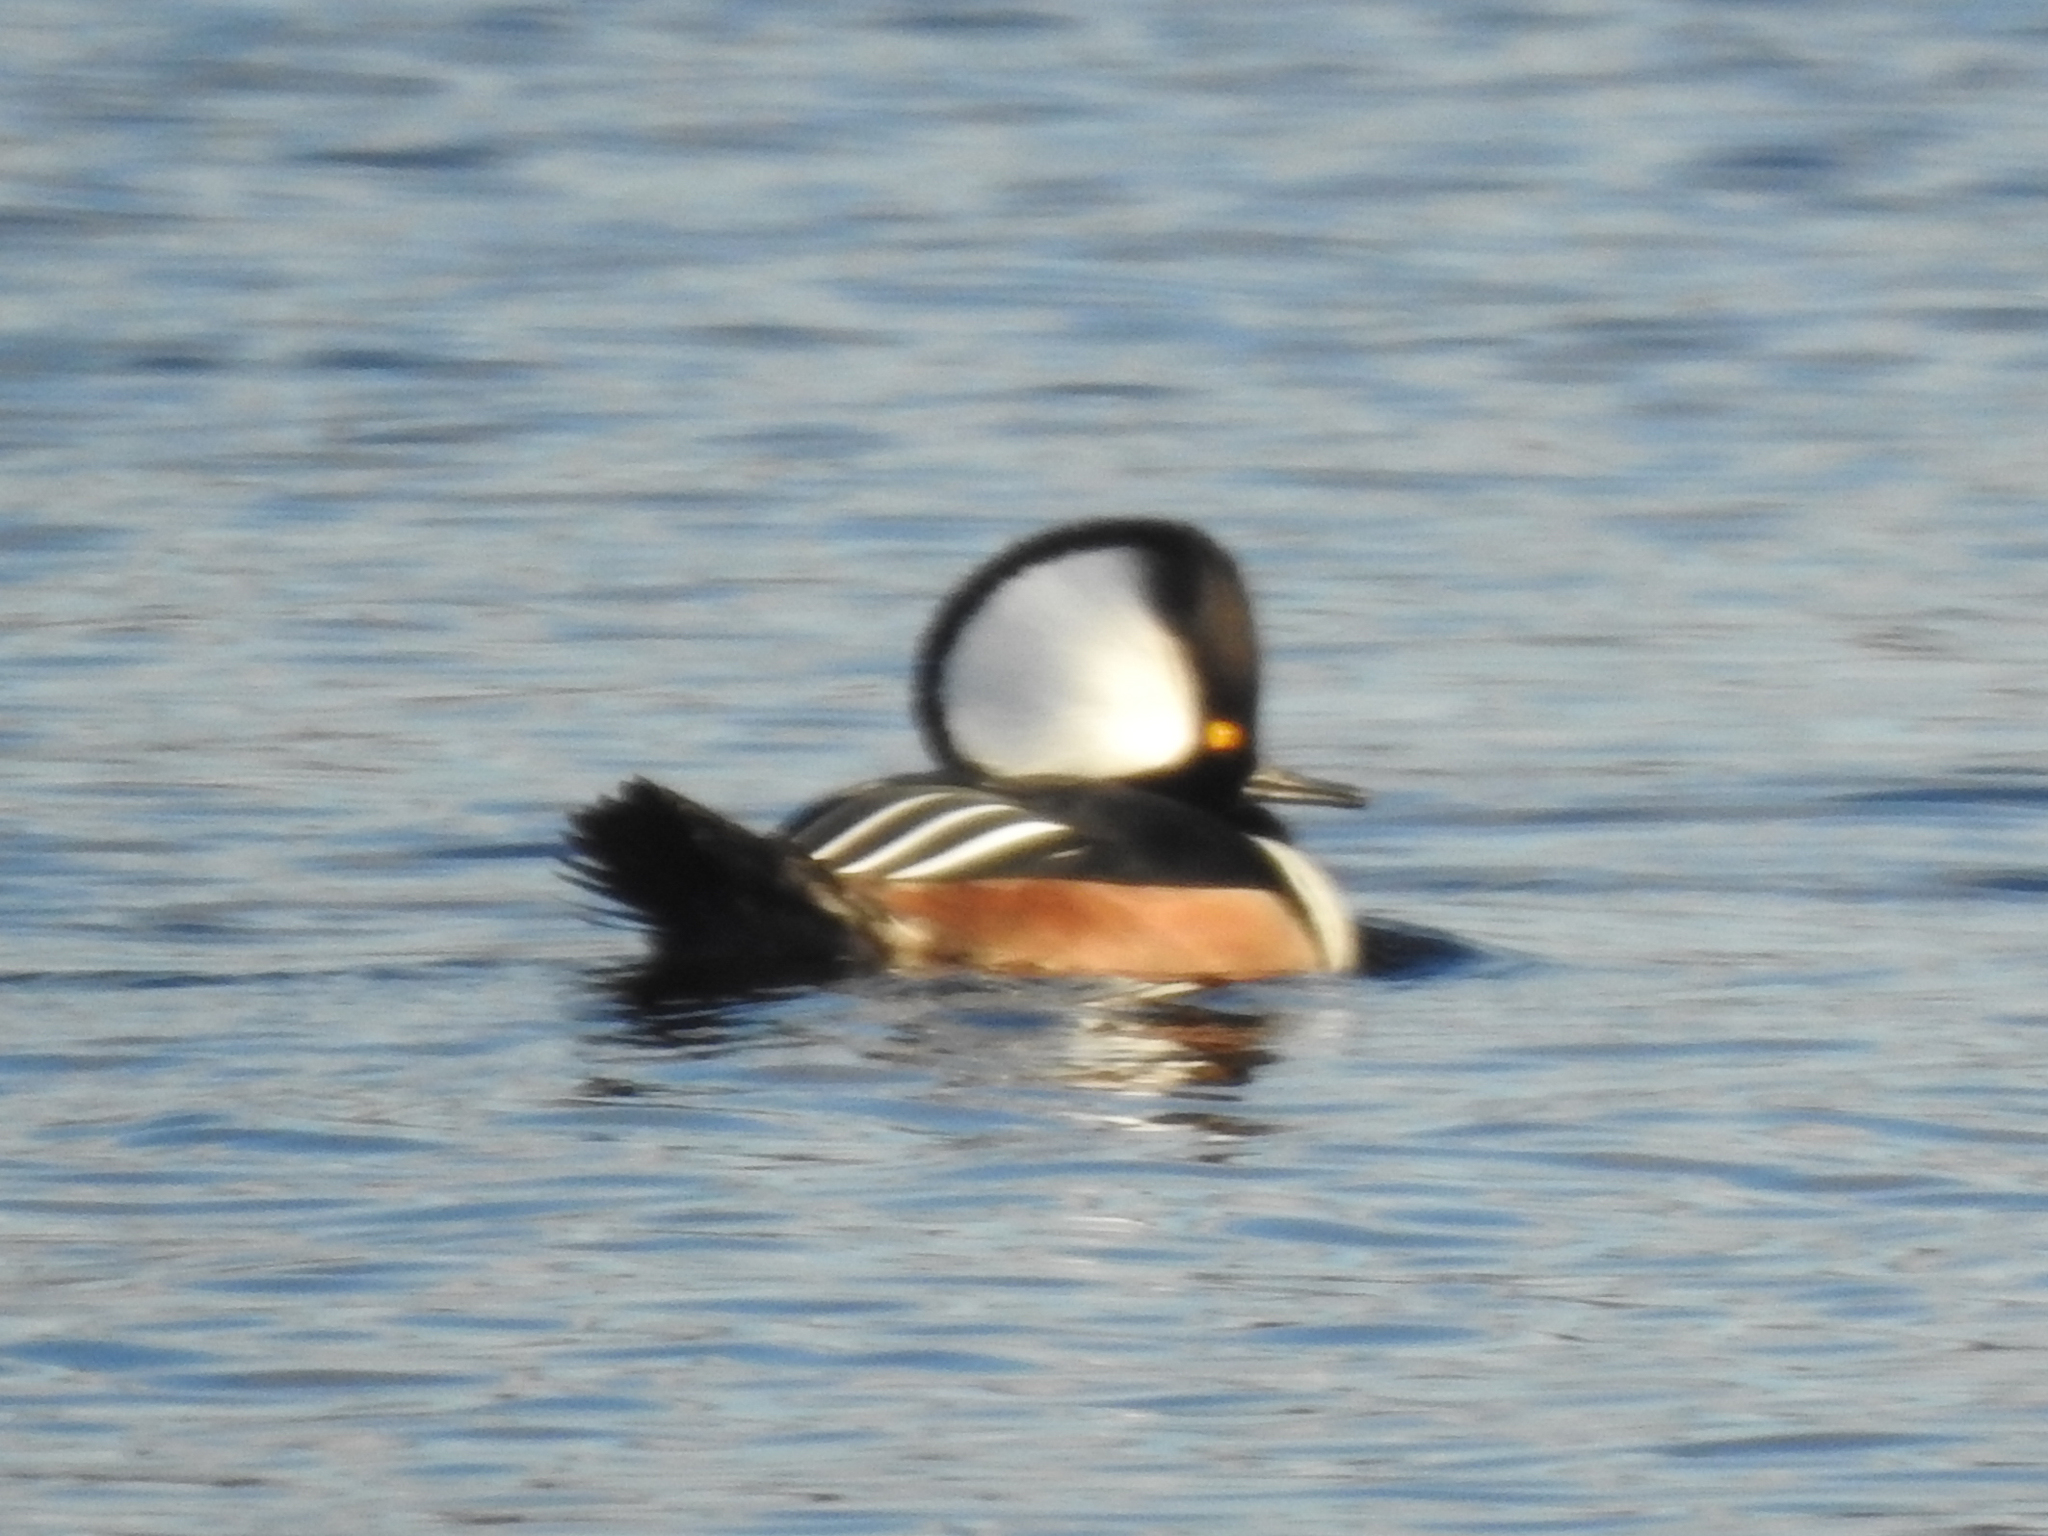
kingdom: Animalia
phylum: Chordata
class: Aves
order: Anseriformes
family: Anatidae
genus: Lophodytes
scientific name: Lophodytes cucullatus
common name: Hooded merganser
